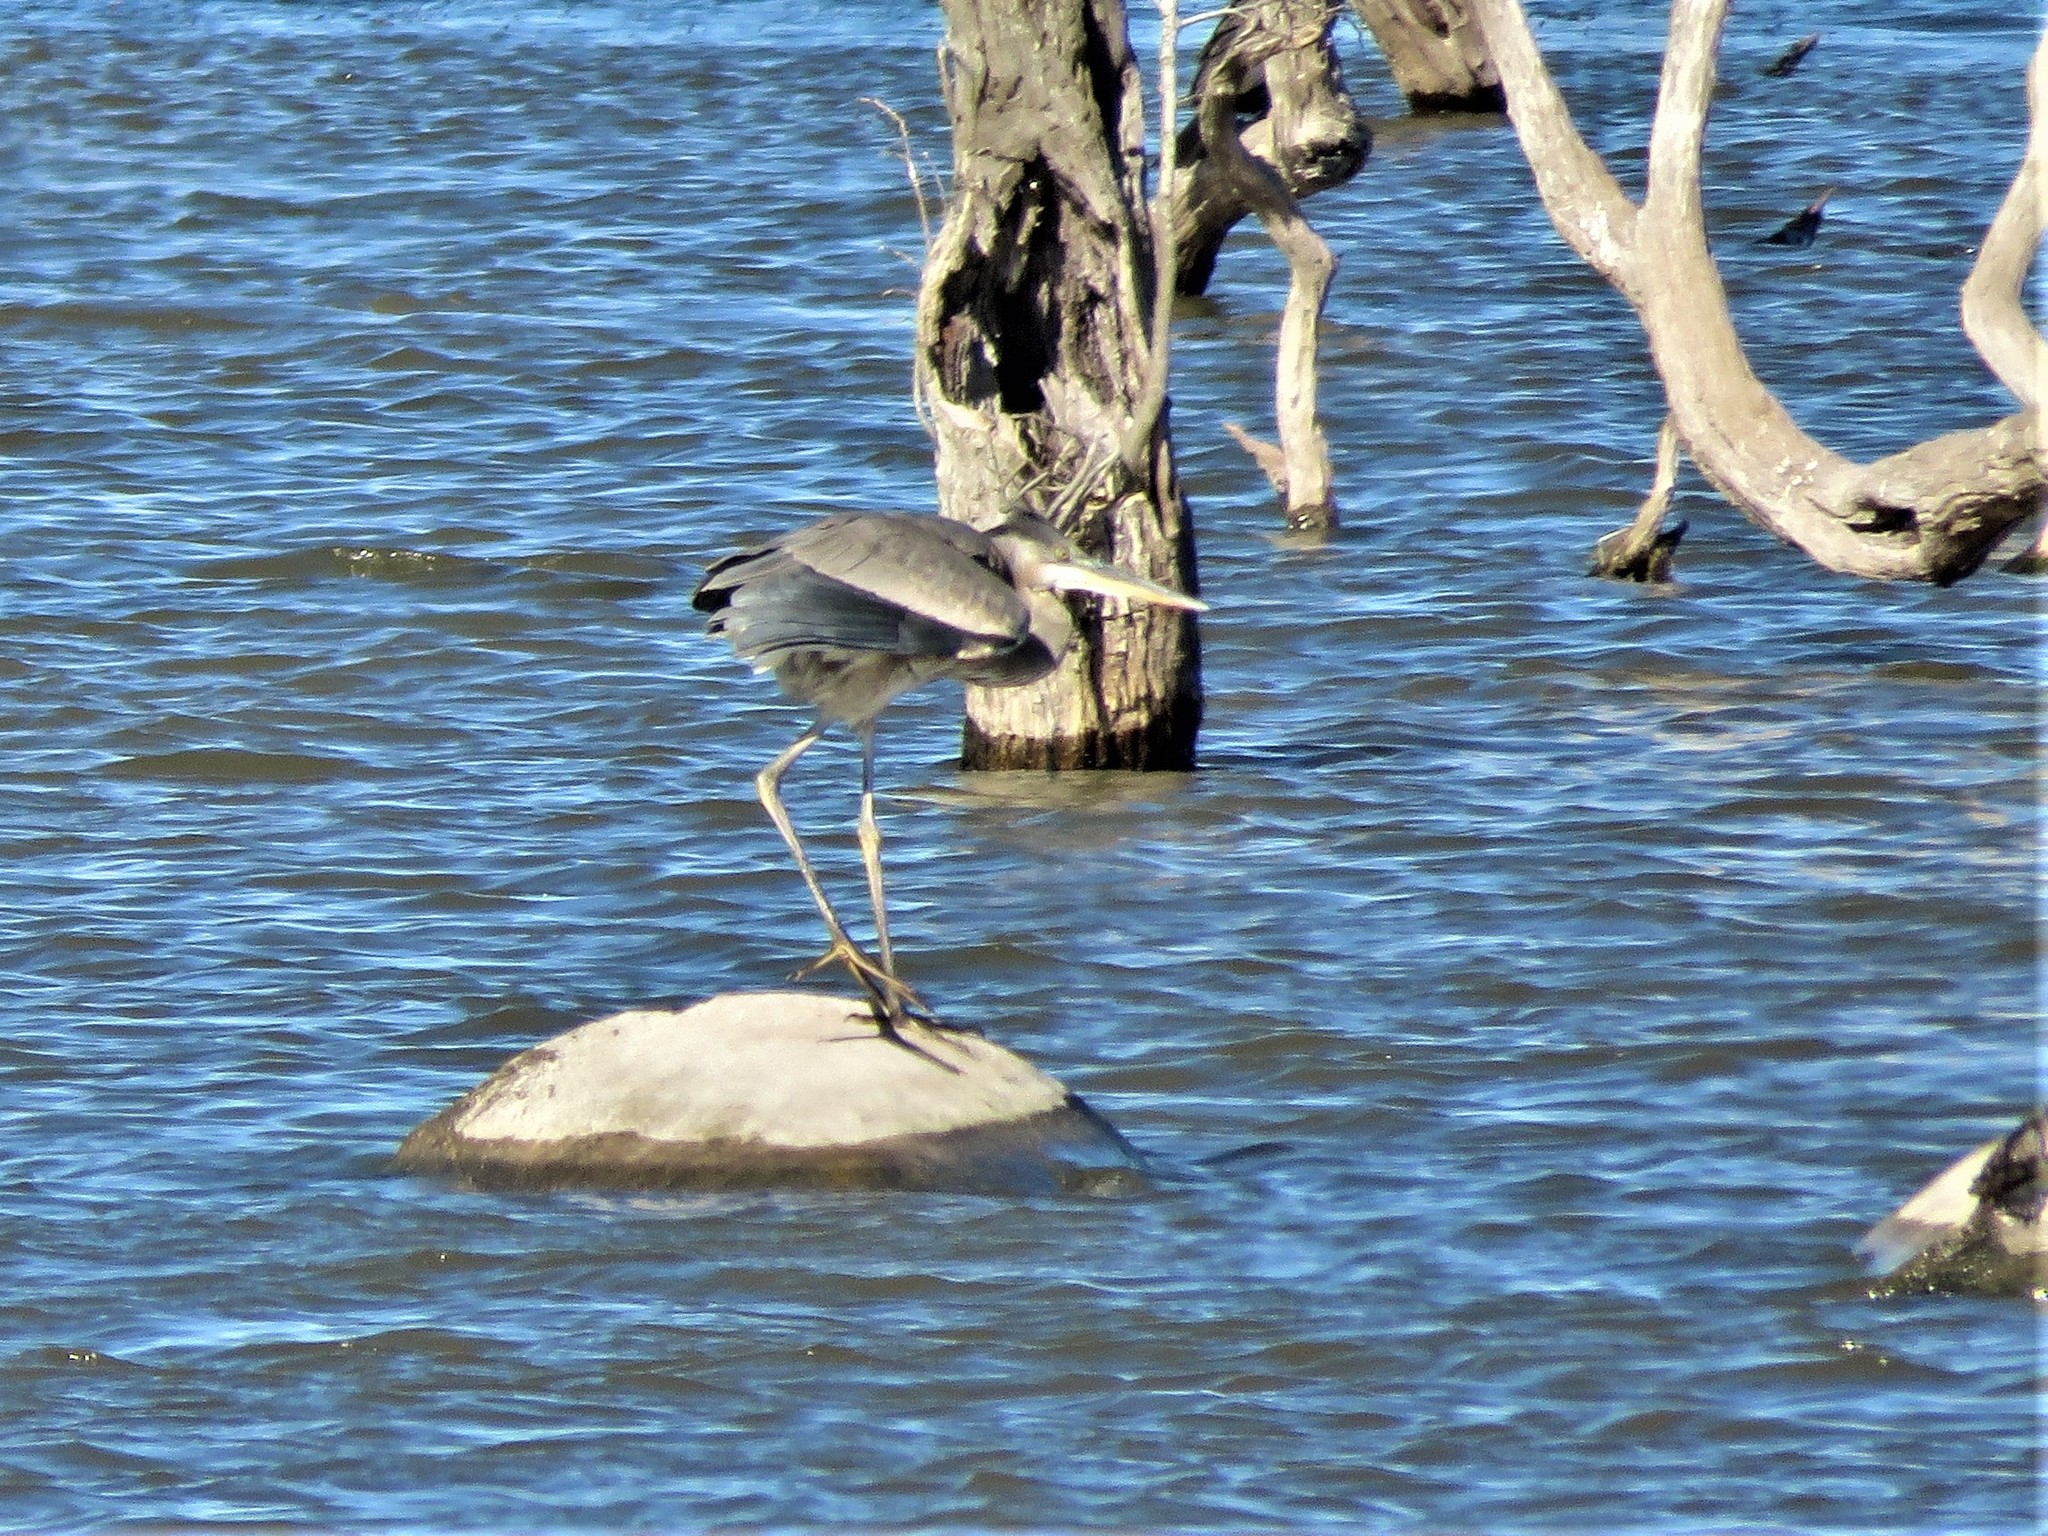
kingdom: Animalia
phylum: Chordata
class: Aves
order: Pelecaniformes
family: Ardeidae
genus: Ardea
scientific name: Ardea herodias
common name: Great blue heron
